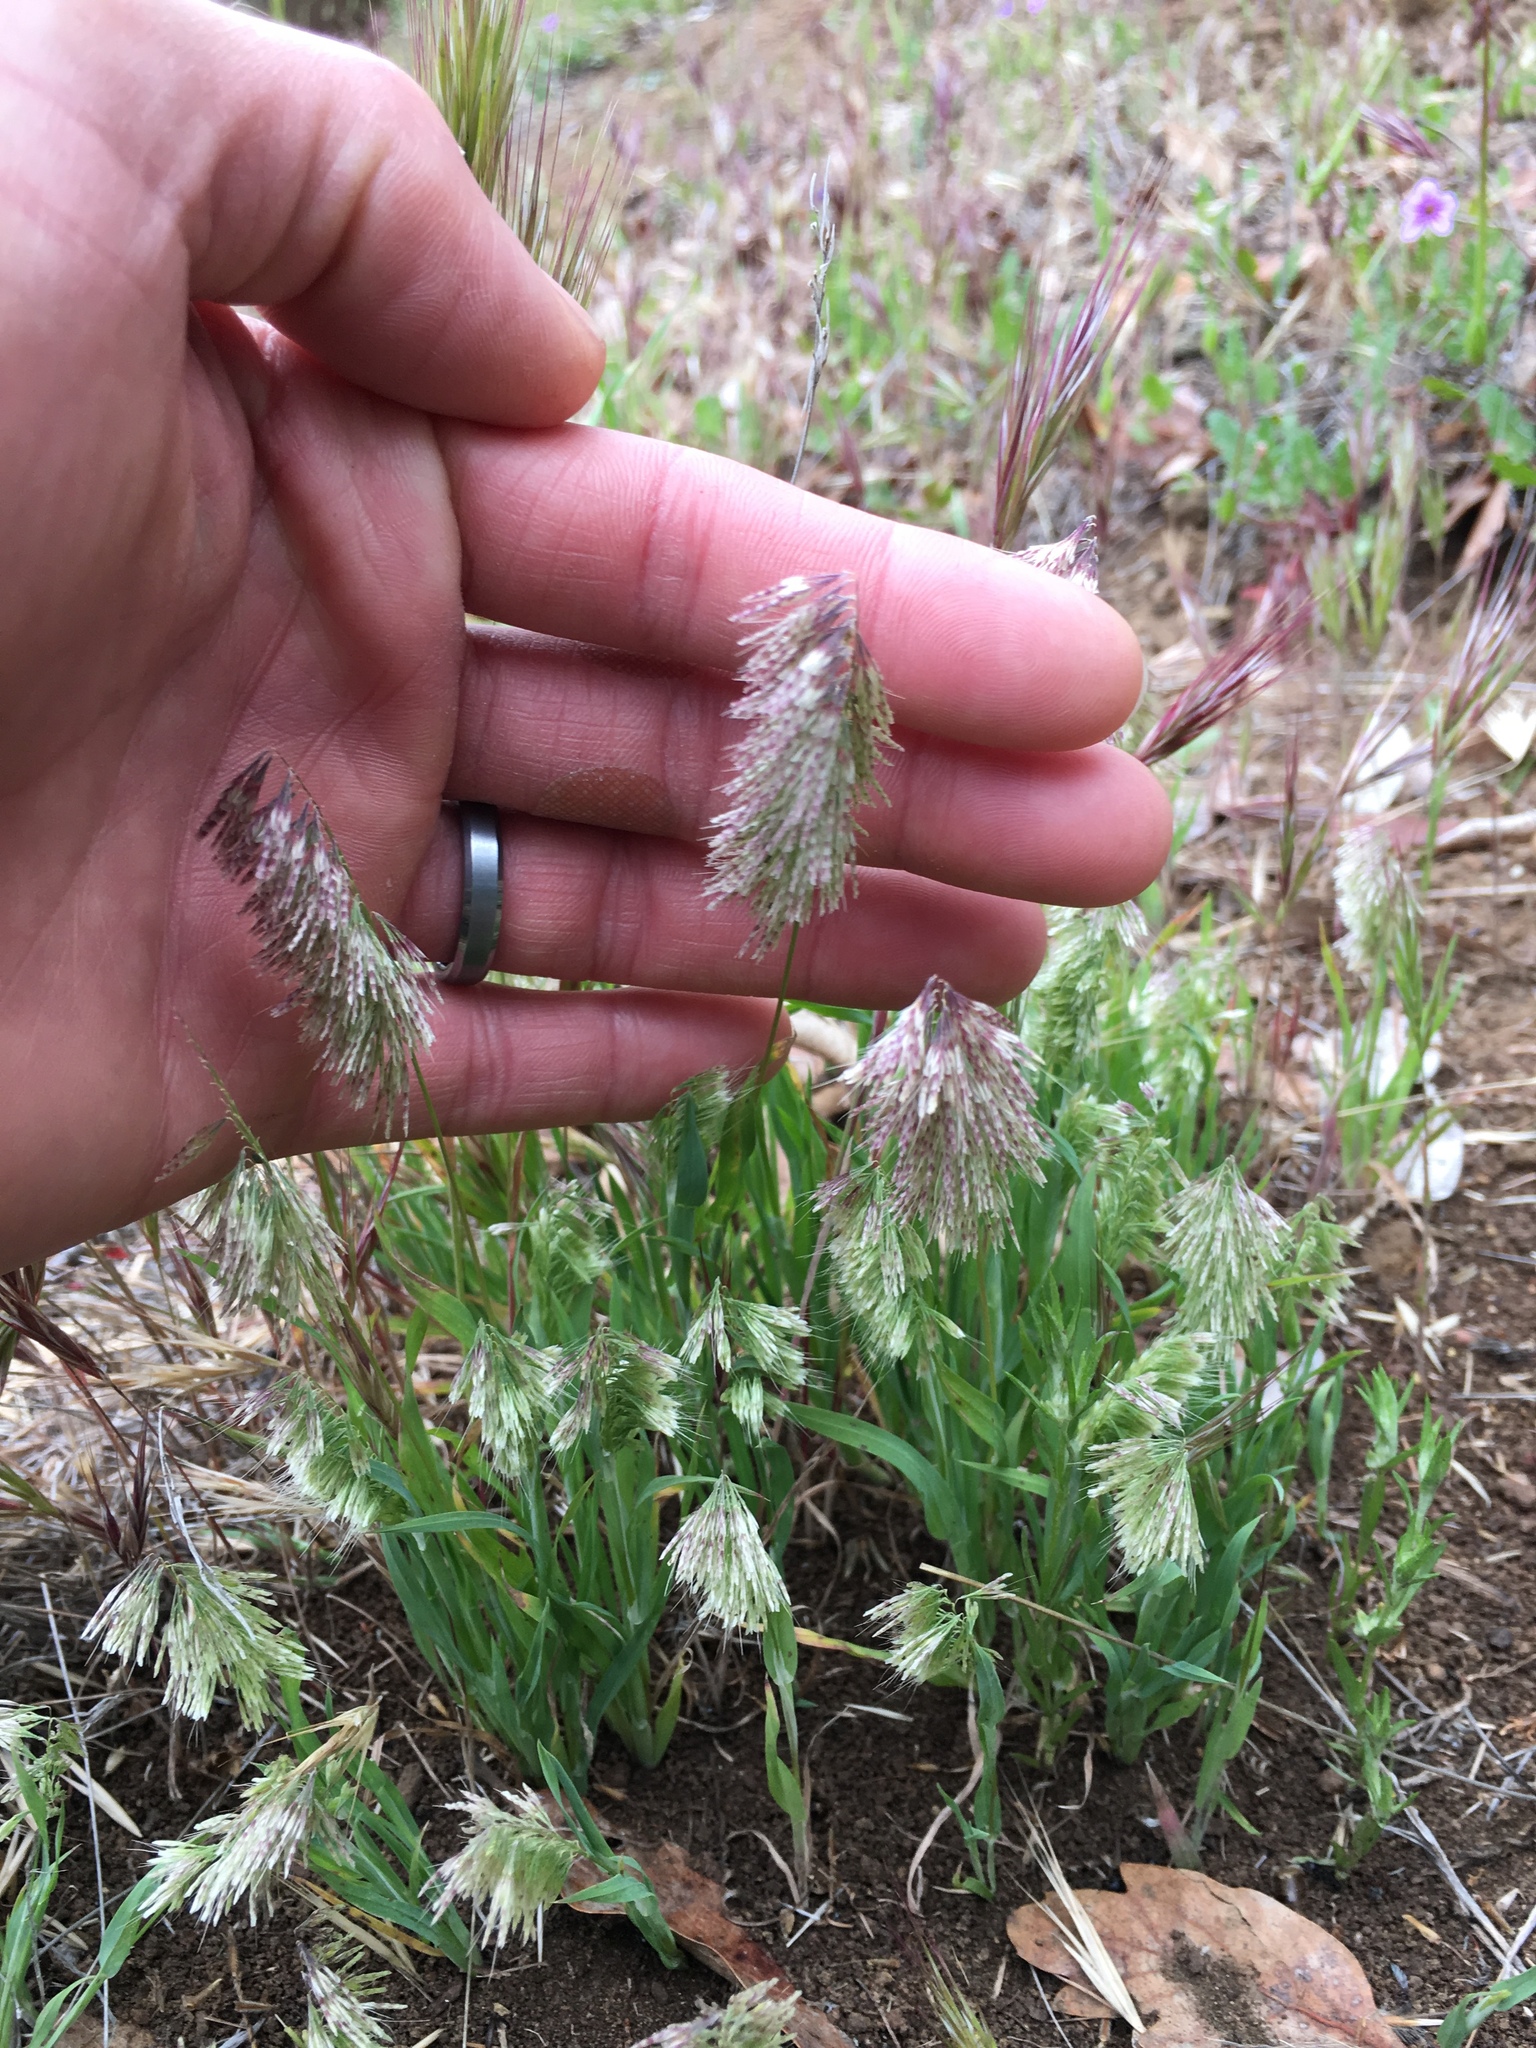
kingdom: Plantae
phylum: Tracheophyta
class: Liliopsida
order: Poales
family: Poaceae
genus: Lamarckia
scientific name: Lamarckia aurea
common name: Golden dog's-tail
